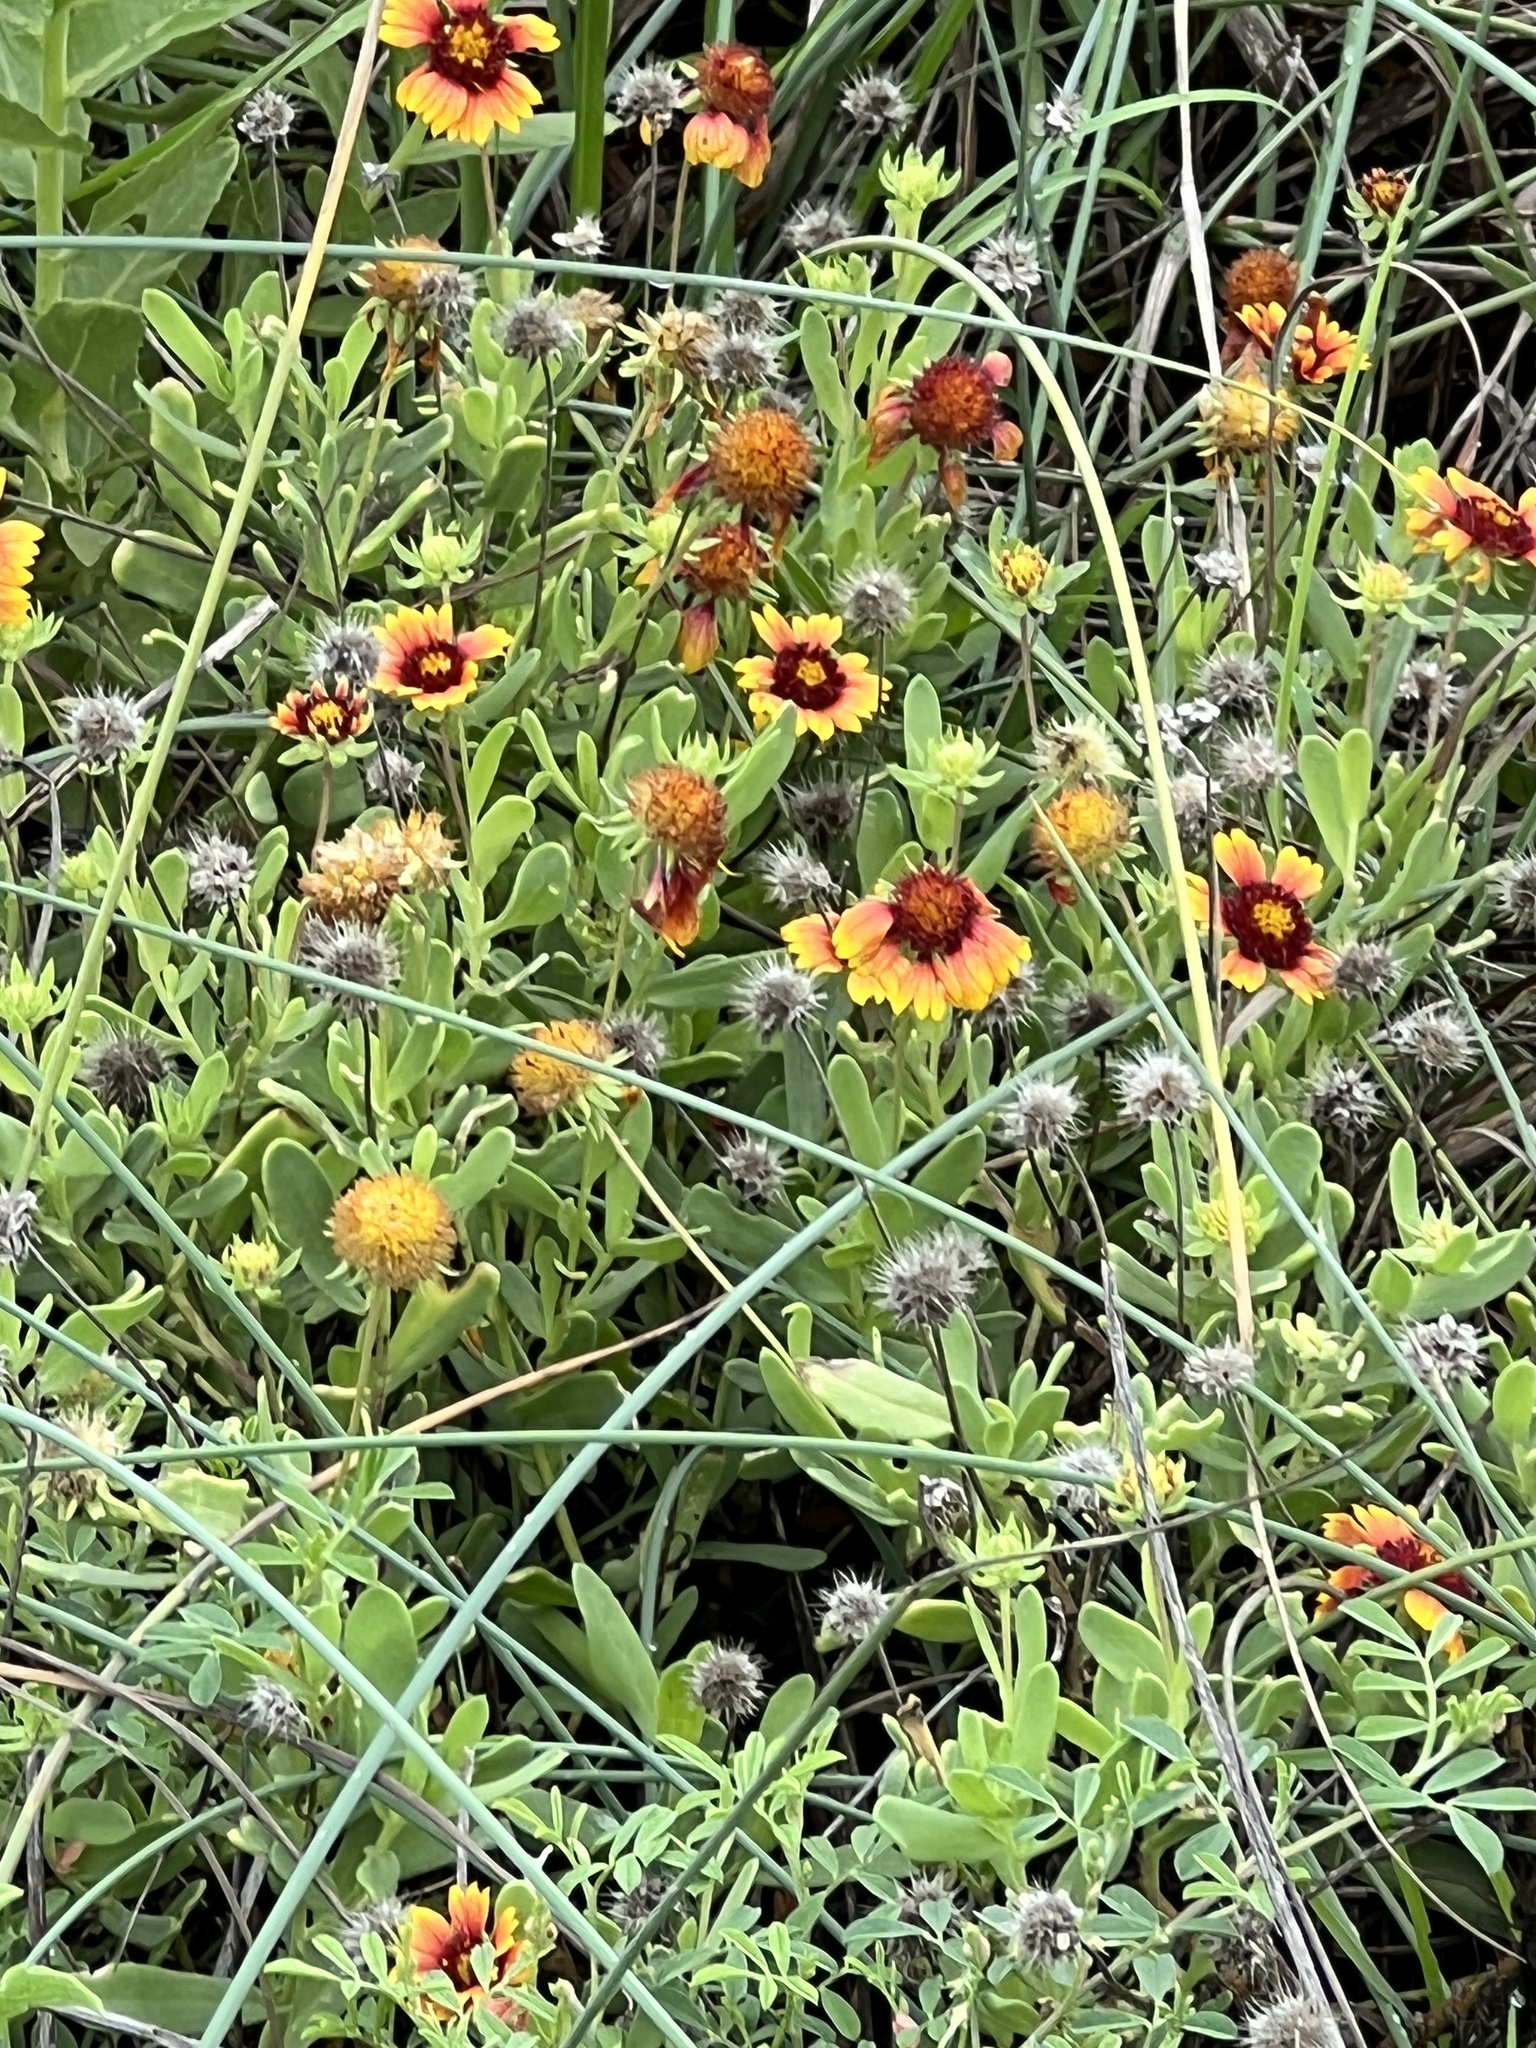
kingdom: Plantae
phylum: Tracheophyta
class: Magnoliopsida
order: Asterales
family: Asteraceae
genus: Gaillardia
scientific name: Gaillardia pulchella
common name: Firewheel
